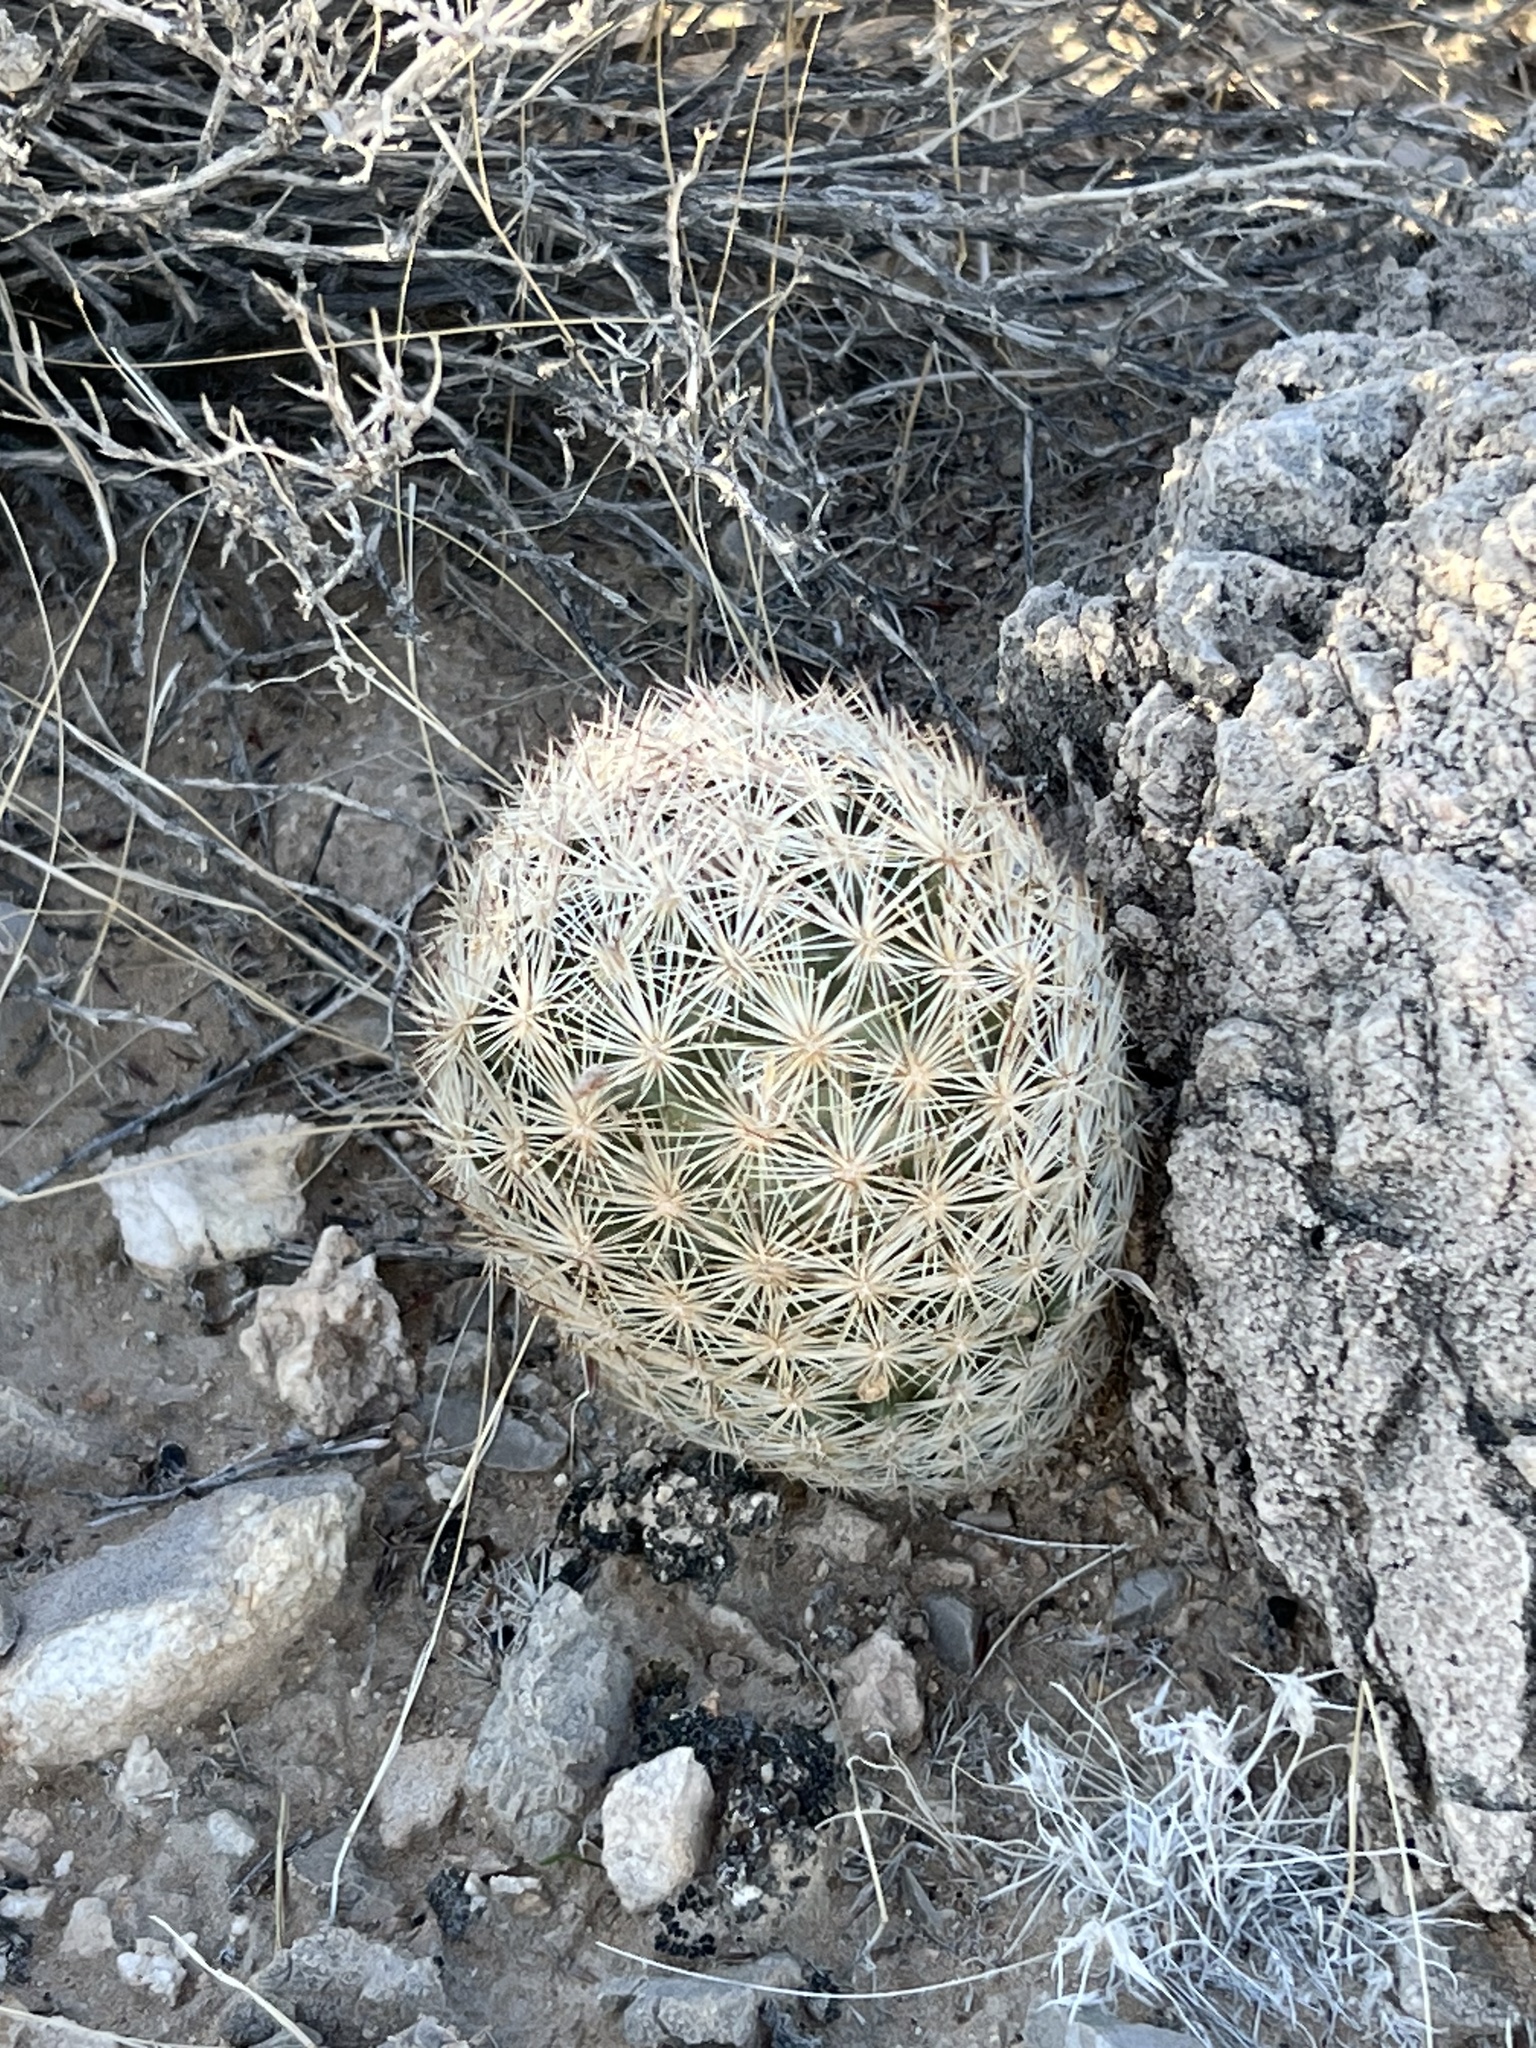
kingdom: Plantae
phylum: Tracheophyta
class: Magnoliopsida
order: Caryophyllales
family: Cactaceae
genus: Pelecyphora
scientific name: Pelecyphora dasyacantha
